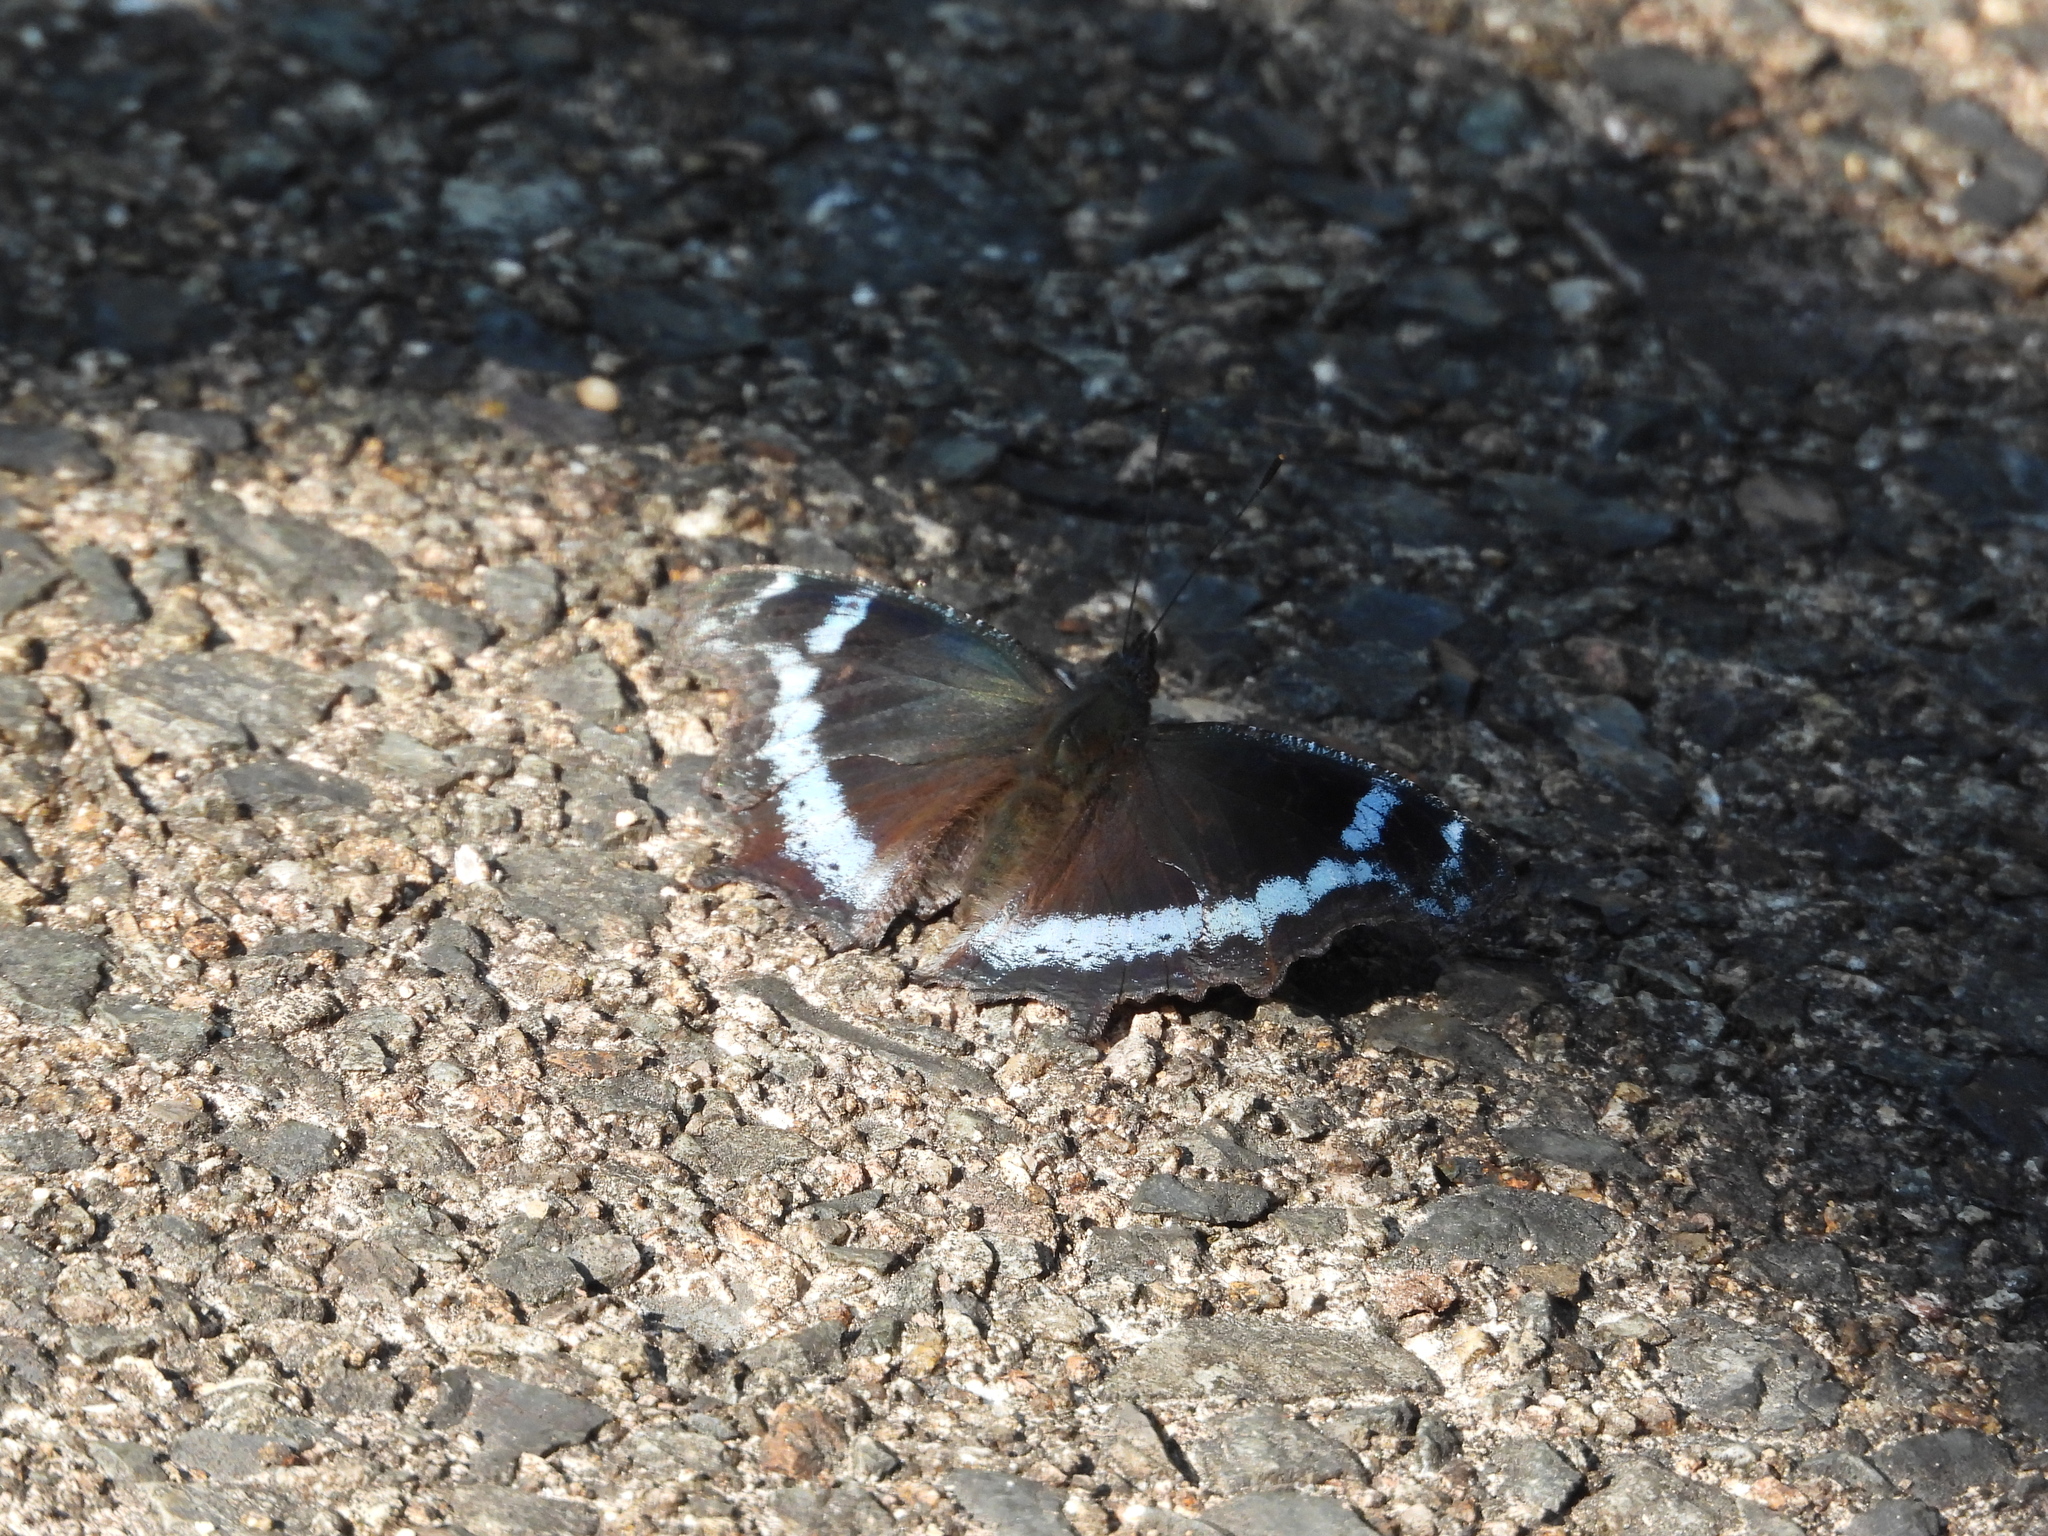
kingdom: Animalia
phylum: Arthropoda
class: Insecta
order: Lepidoptera
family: Nymphalidae
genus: Vanessa
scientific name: Vanessa Kaniska canace
